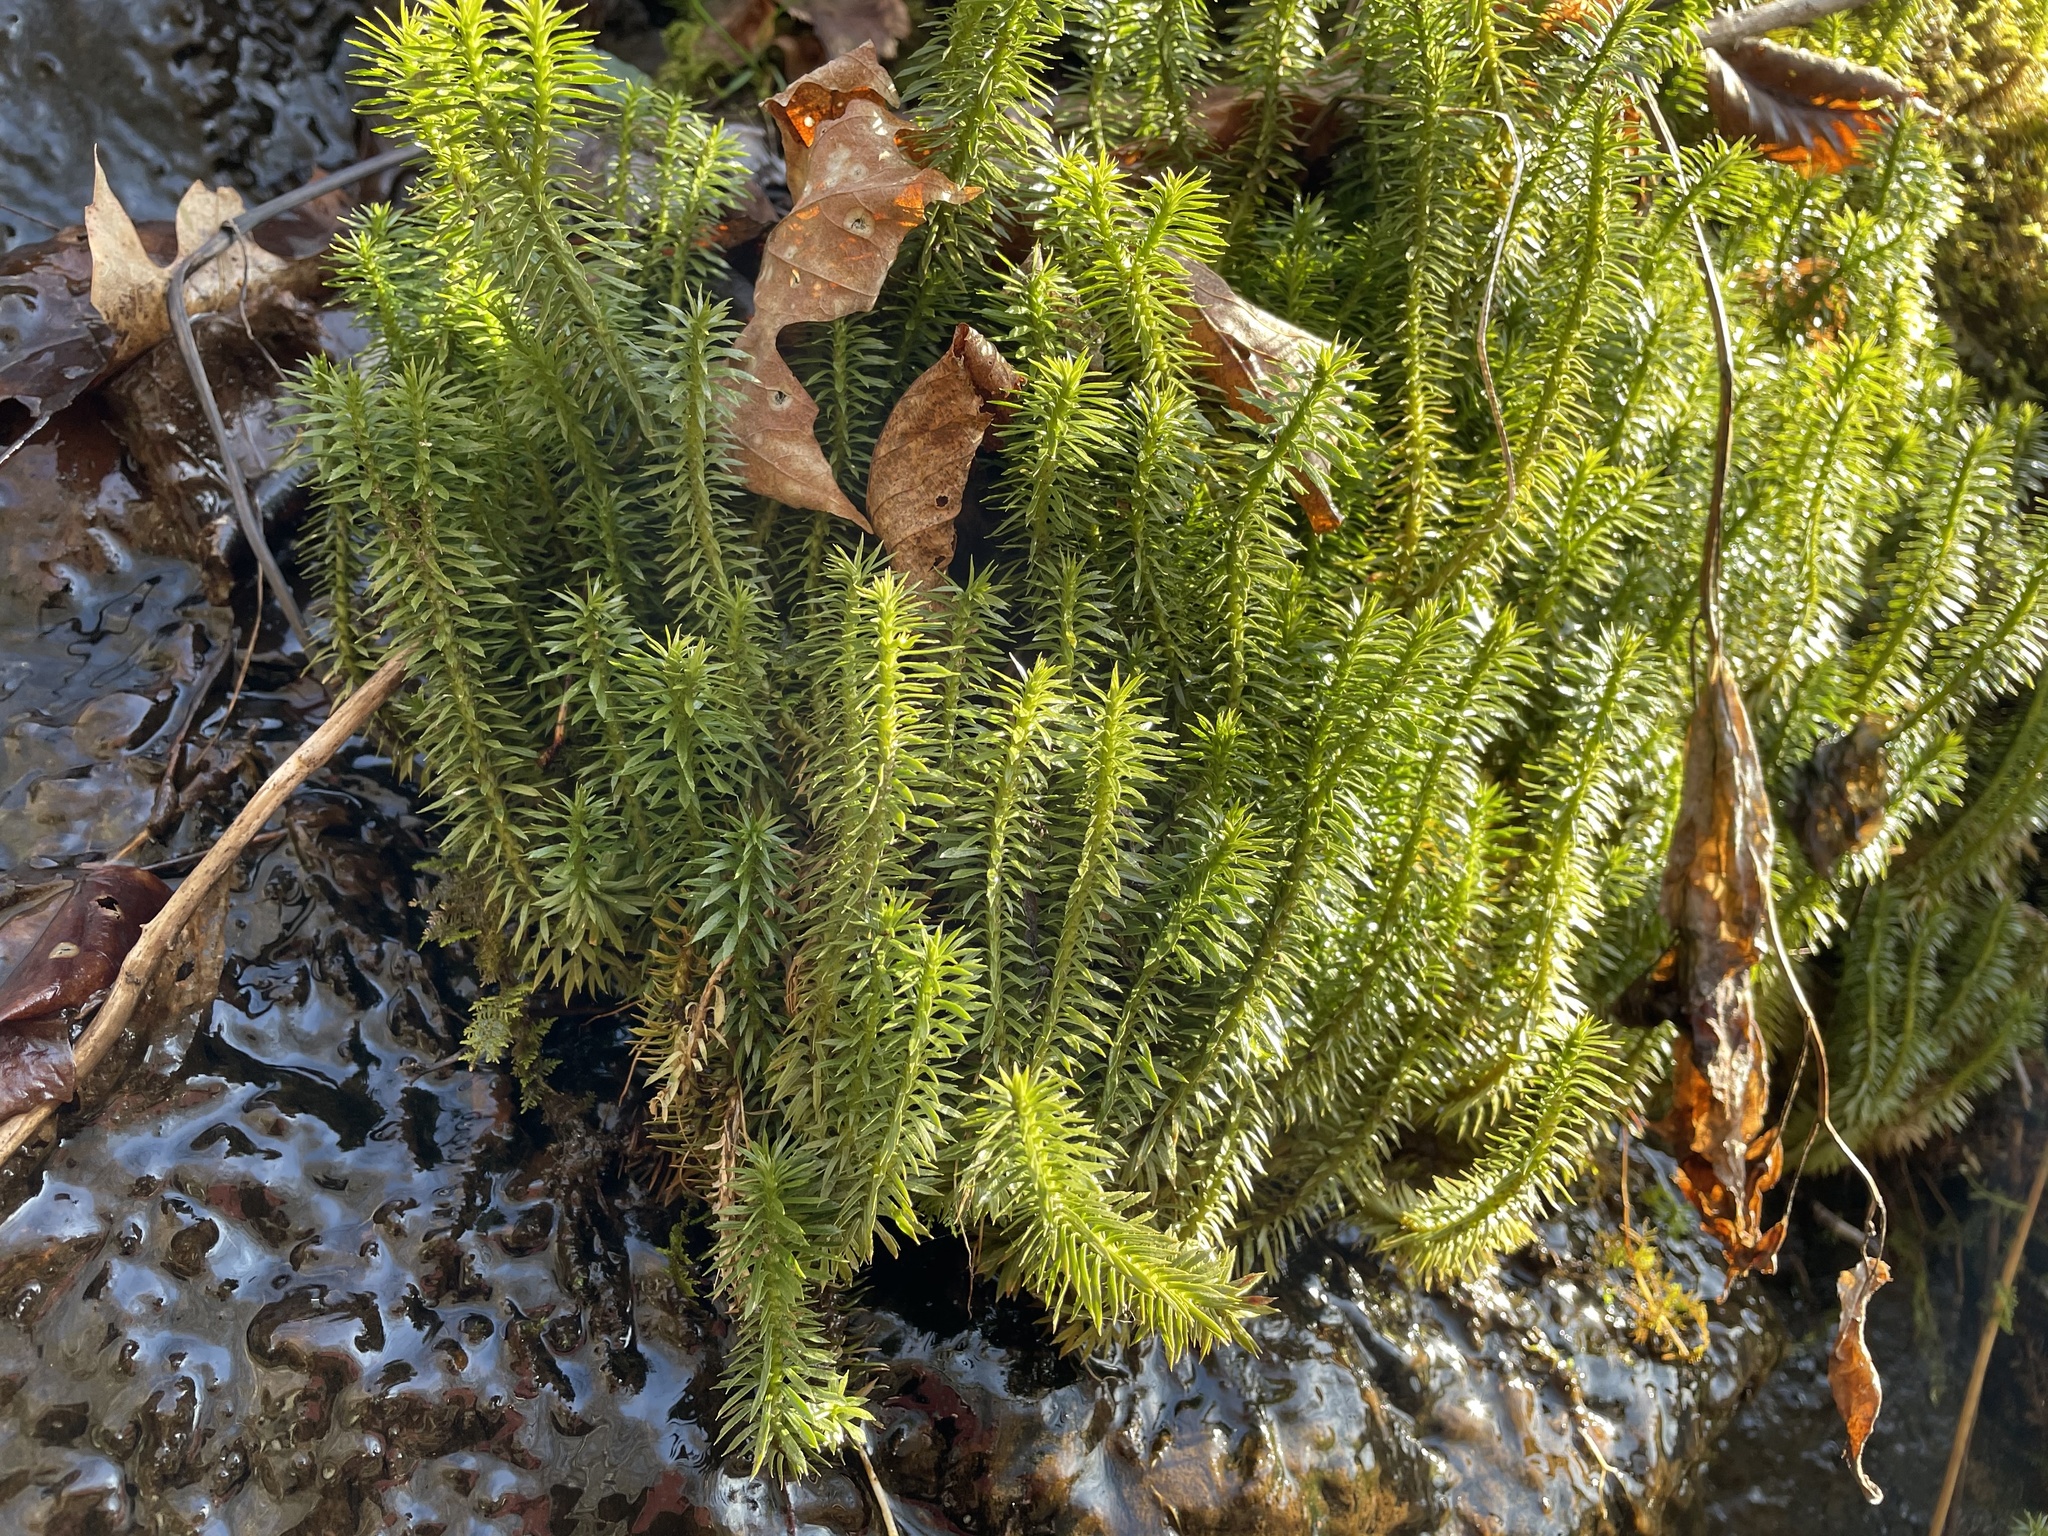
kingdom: Plantae
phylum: Tracheophyta
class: Lycopodiopsida
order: Lycopodiales
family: Lycopodiaceae
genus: Huperzia
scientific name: Huperzia lucidula
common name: Shining clubmoss
